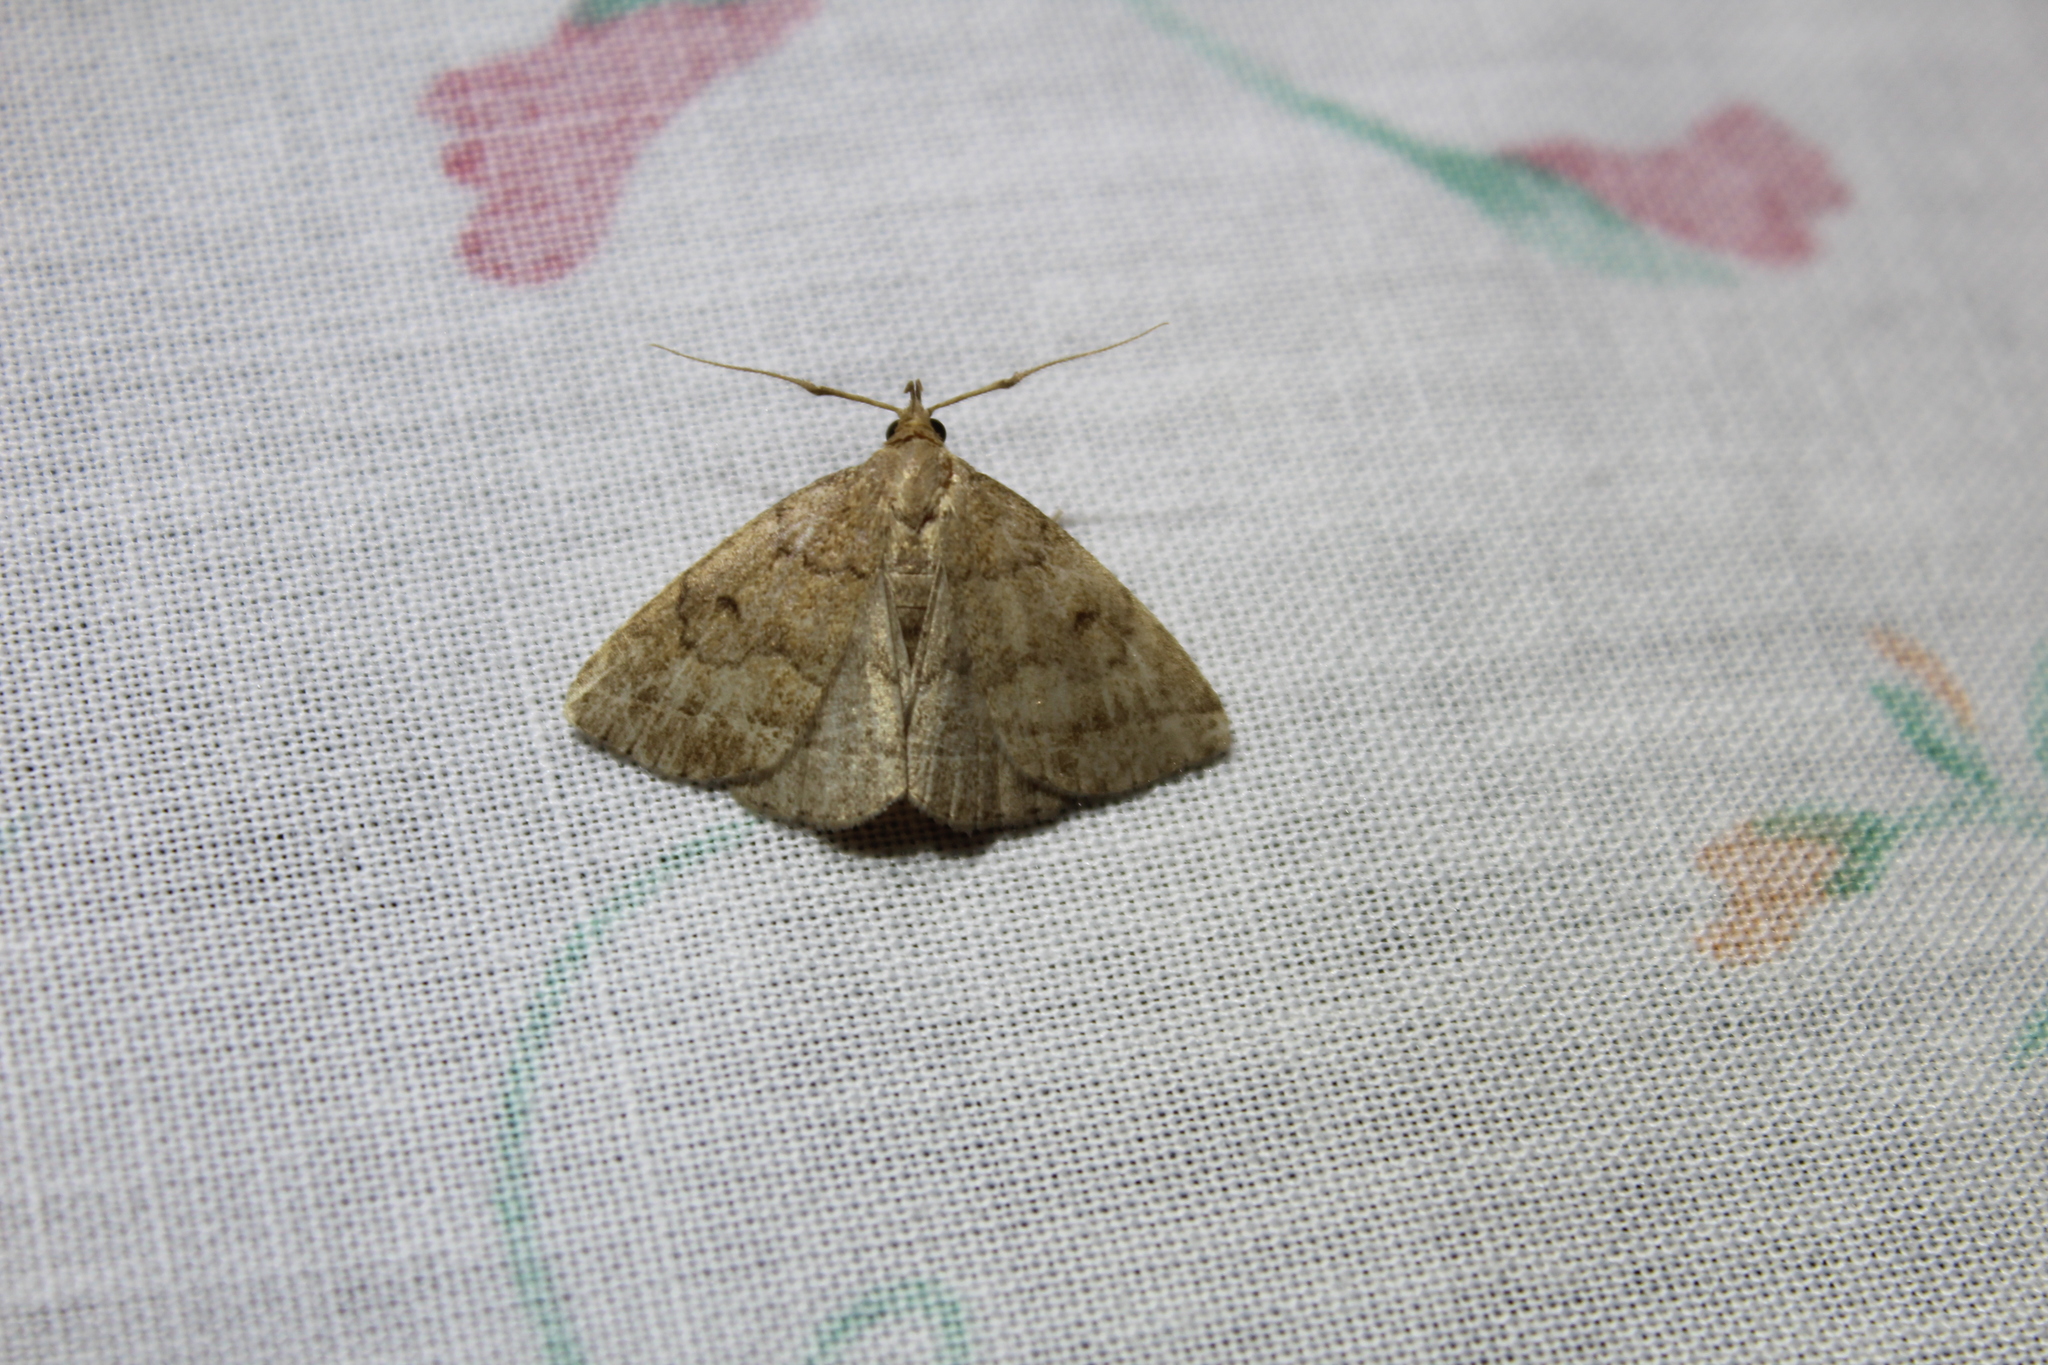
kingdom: Animalia
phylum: Arthropoda
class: Insecta
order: Lepidoptera
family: Erebidae
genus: Zanclognatha
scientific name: Zanclognatha jacchusalis
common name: Yellowish zanclognatha
